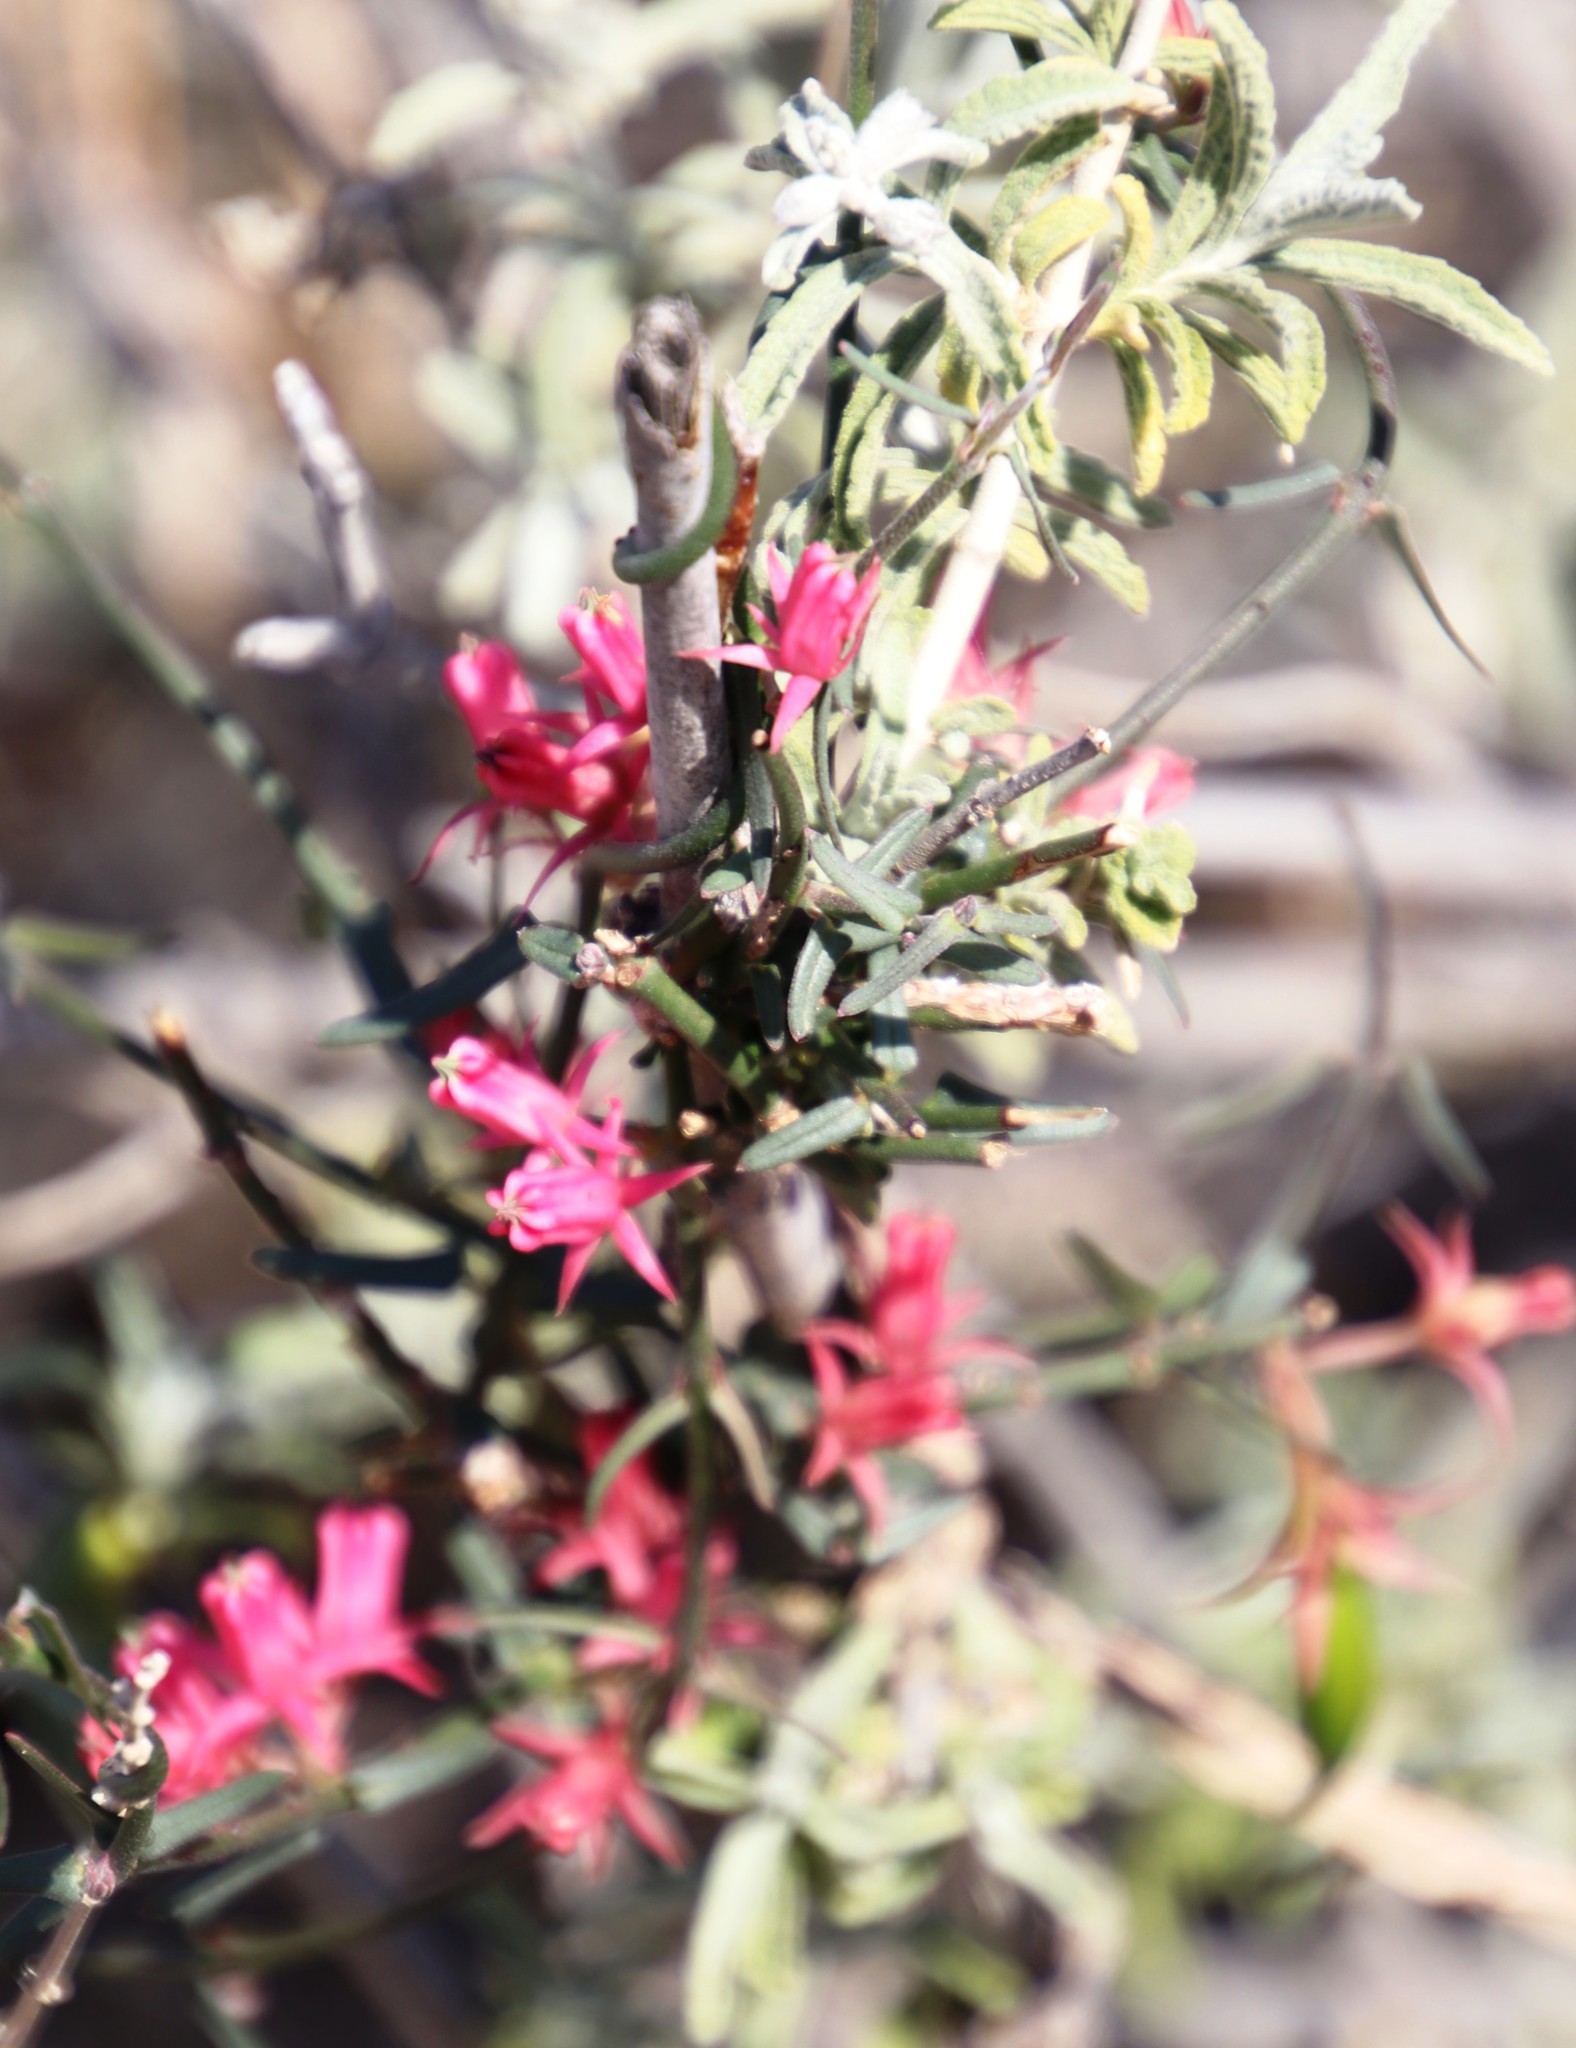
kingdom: Plantae
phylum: Tracheophyta
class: Magnoliopsida
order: Gentianales
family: Apocynaceae
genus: Microloma
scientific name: Microloma sagittatum
